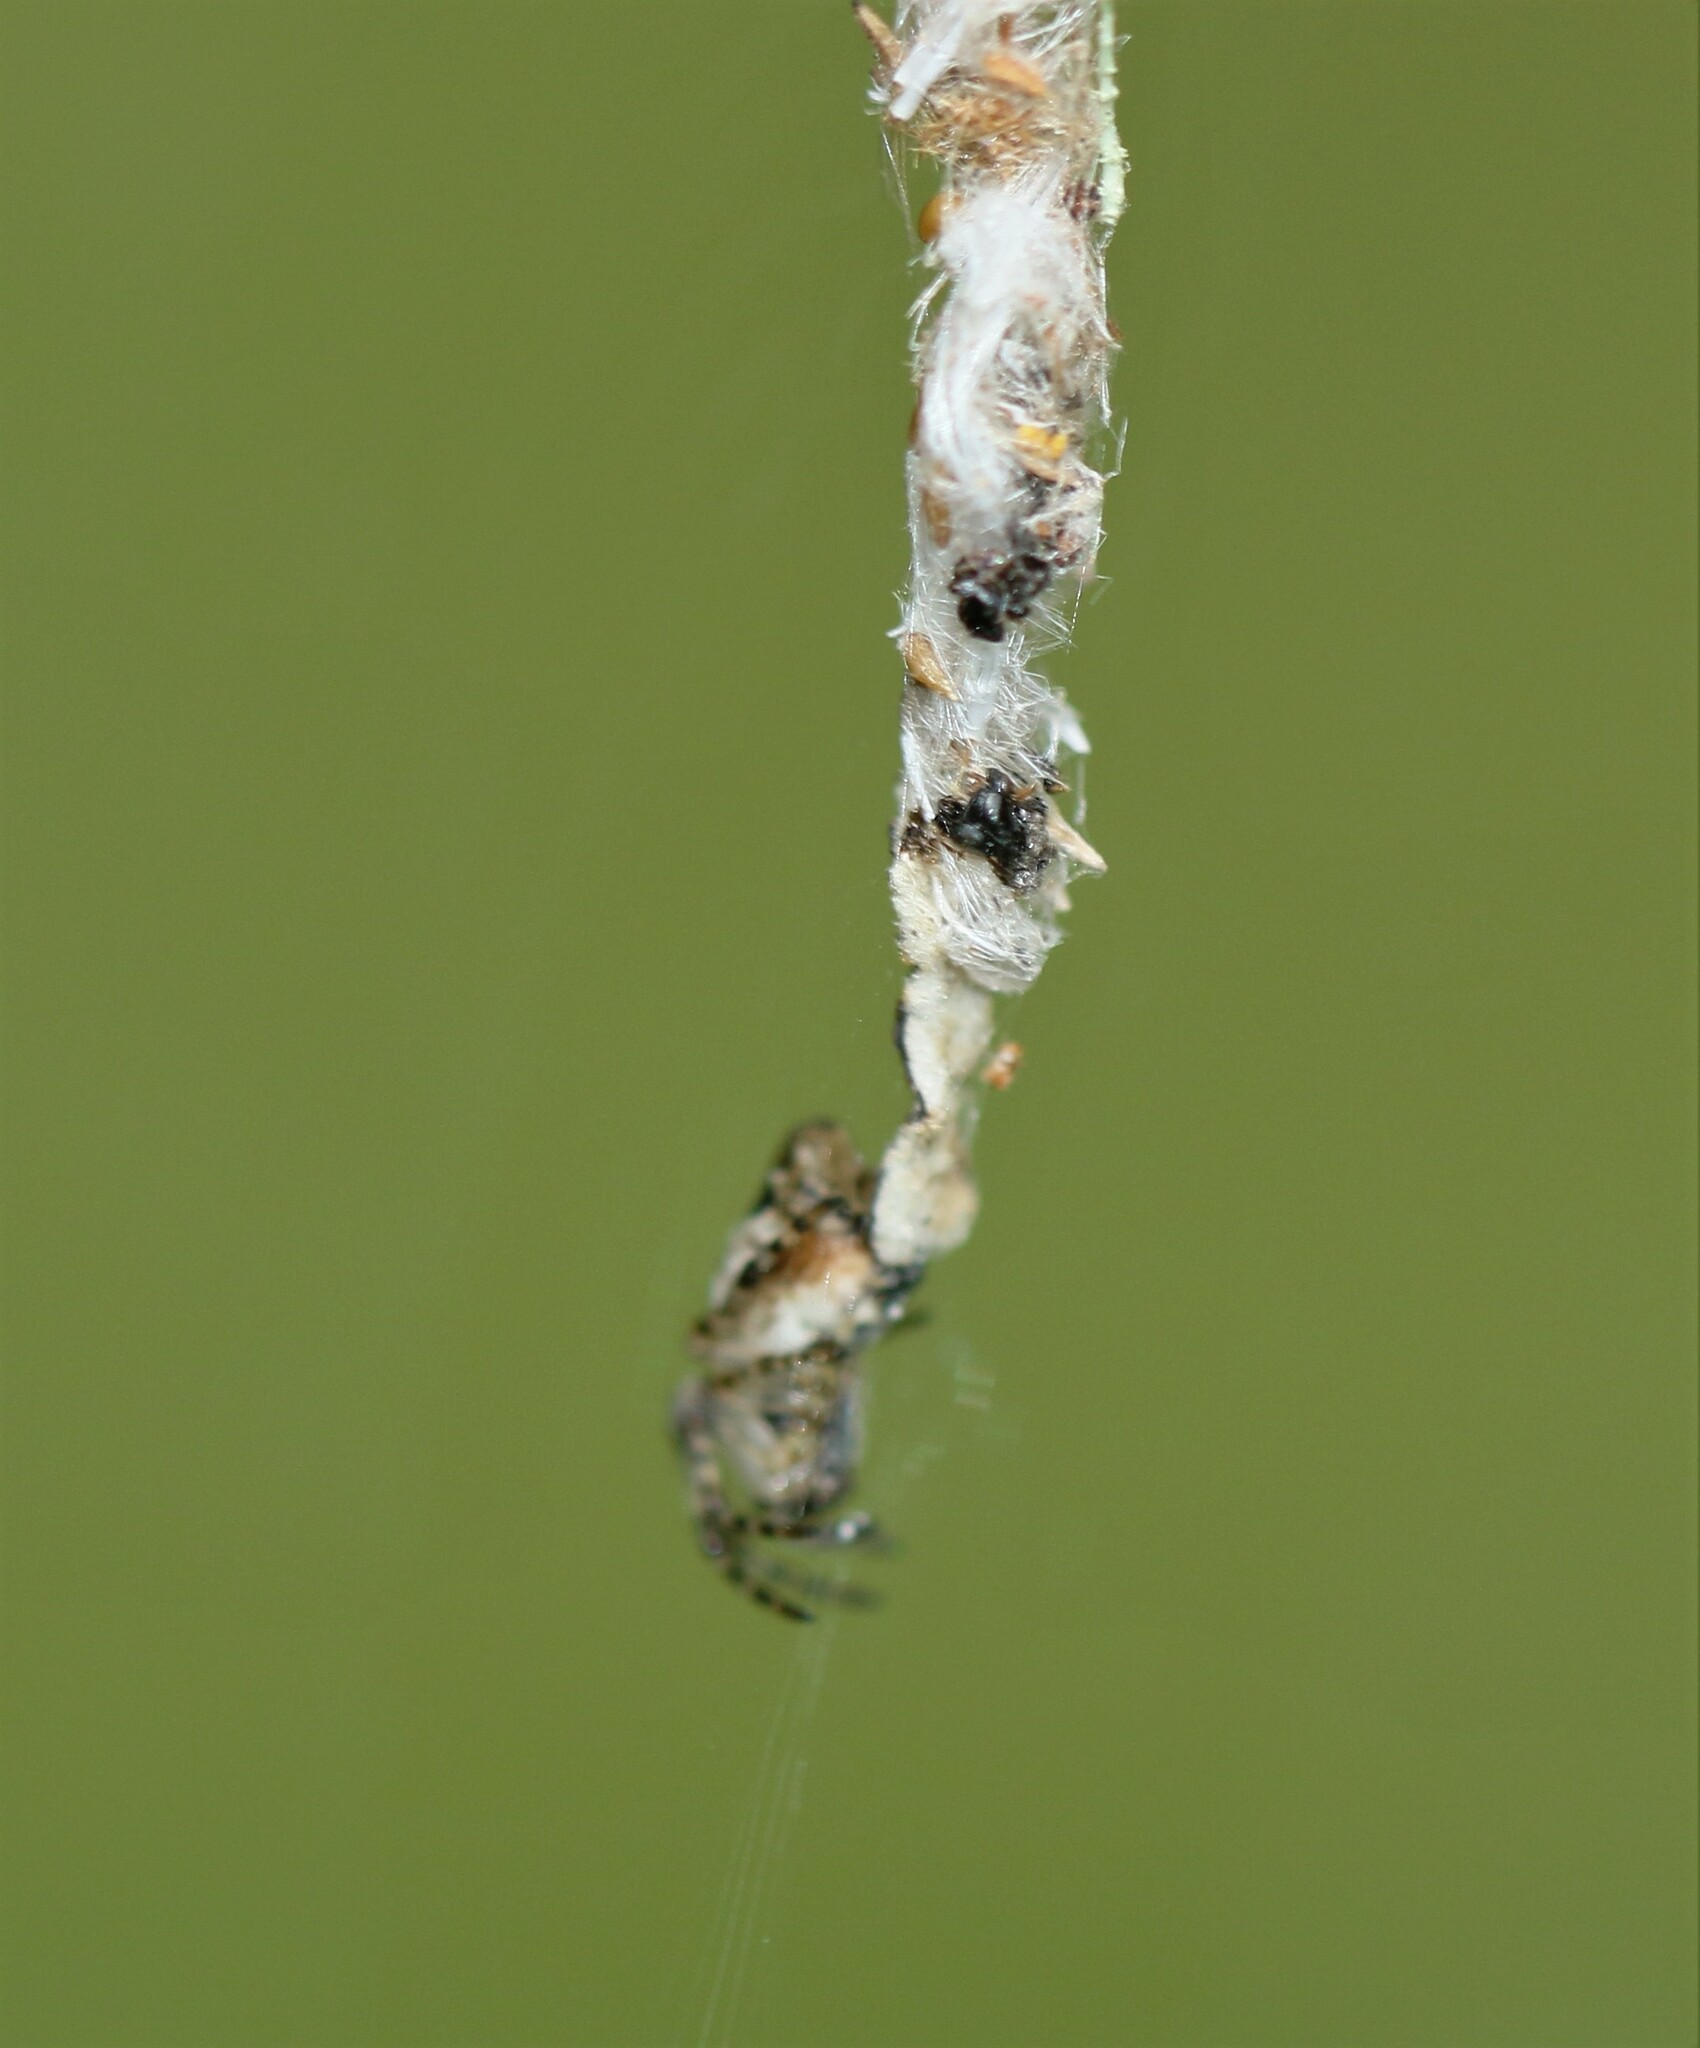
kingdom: Animalia
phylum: Arthropoda
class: Arachnida
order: Araneae
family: Araneidae
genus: Cyclosa
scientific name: Cyclosa conica
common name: Conical trashline orbweaver
